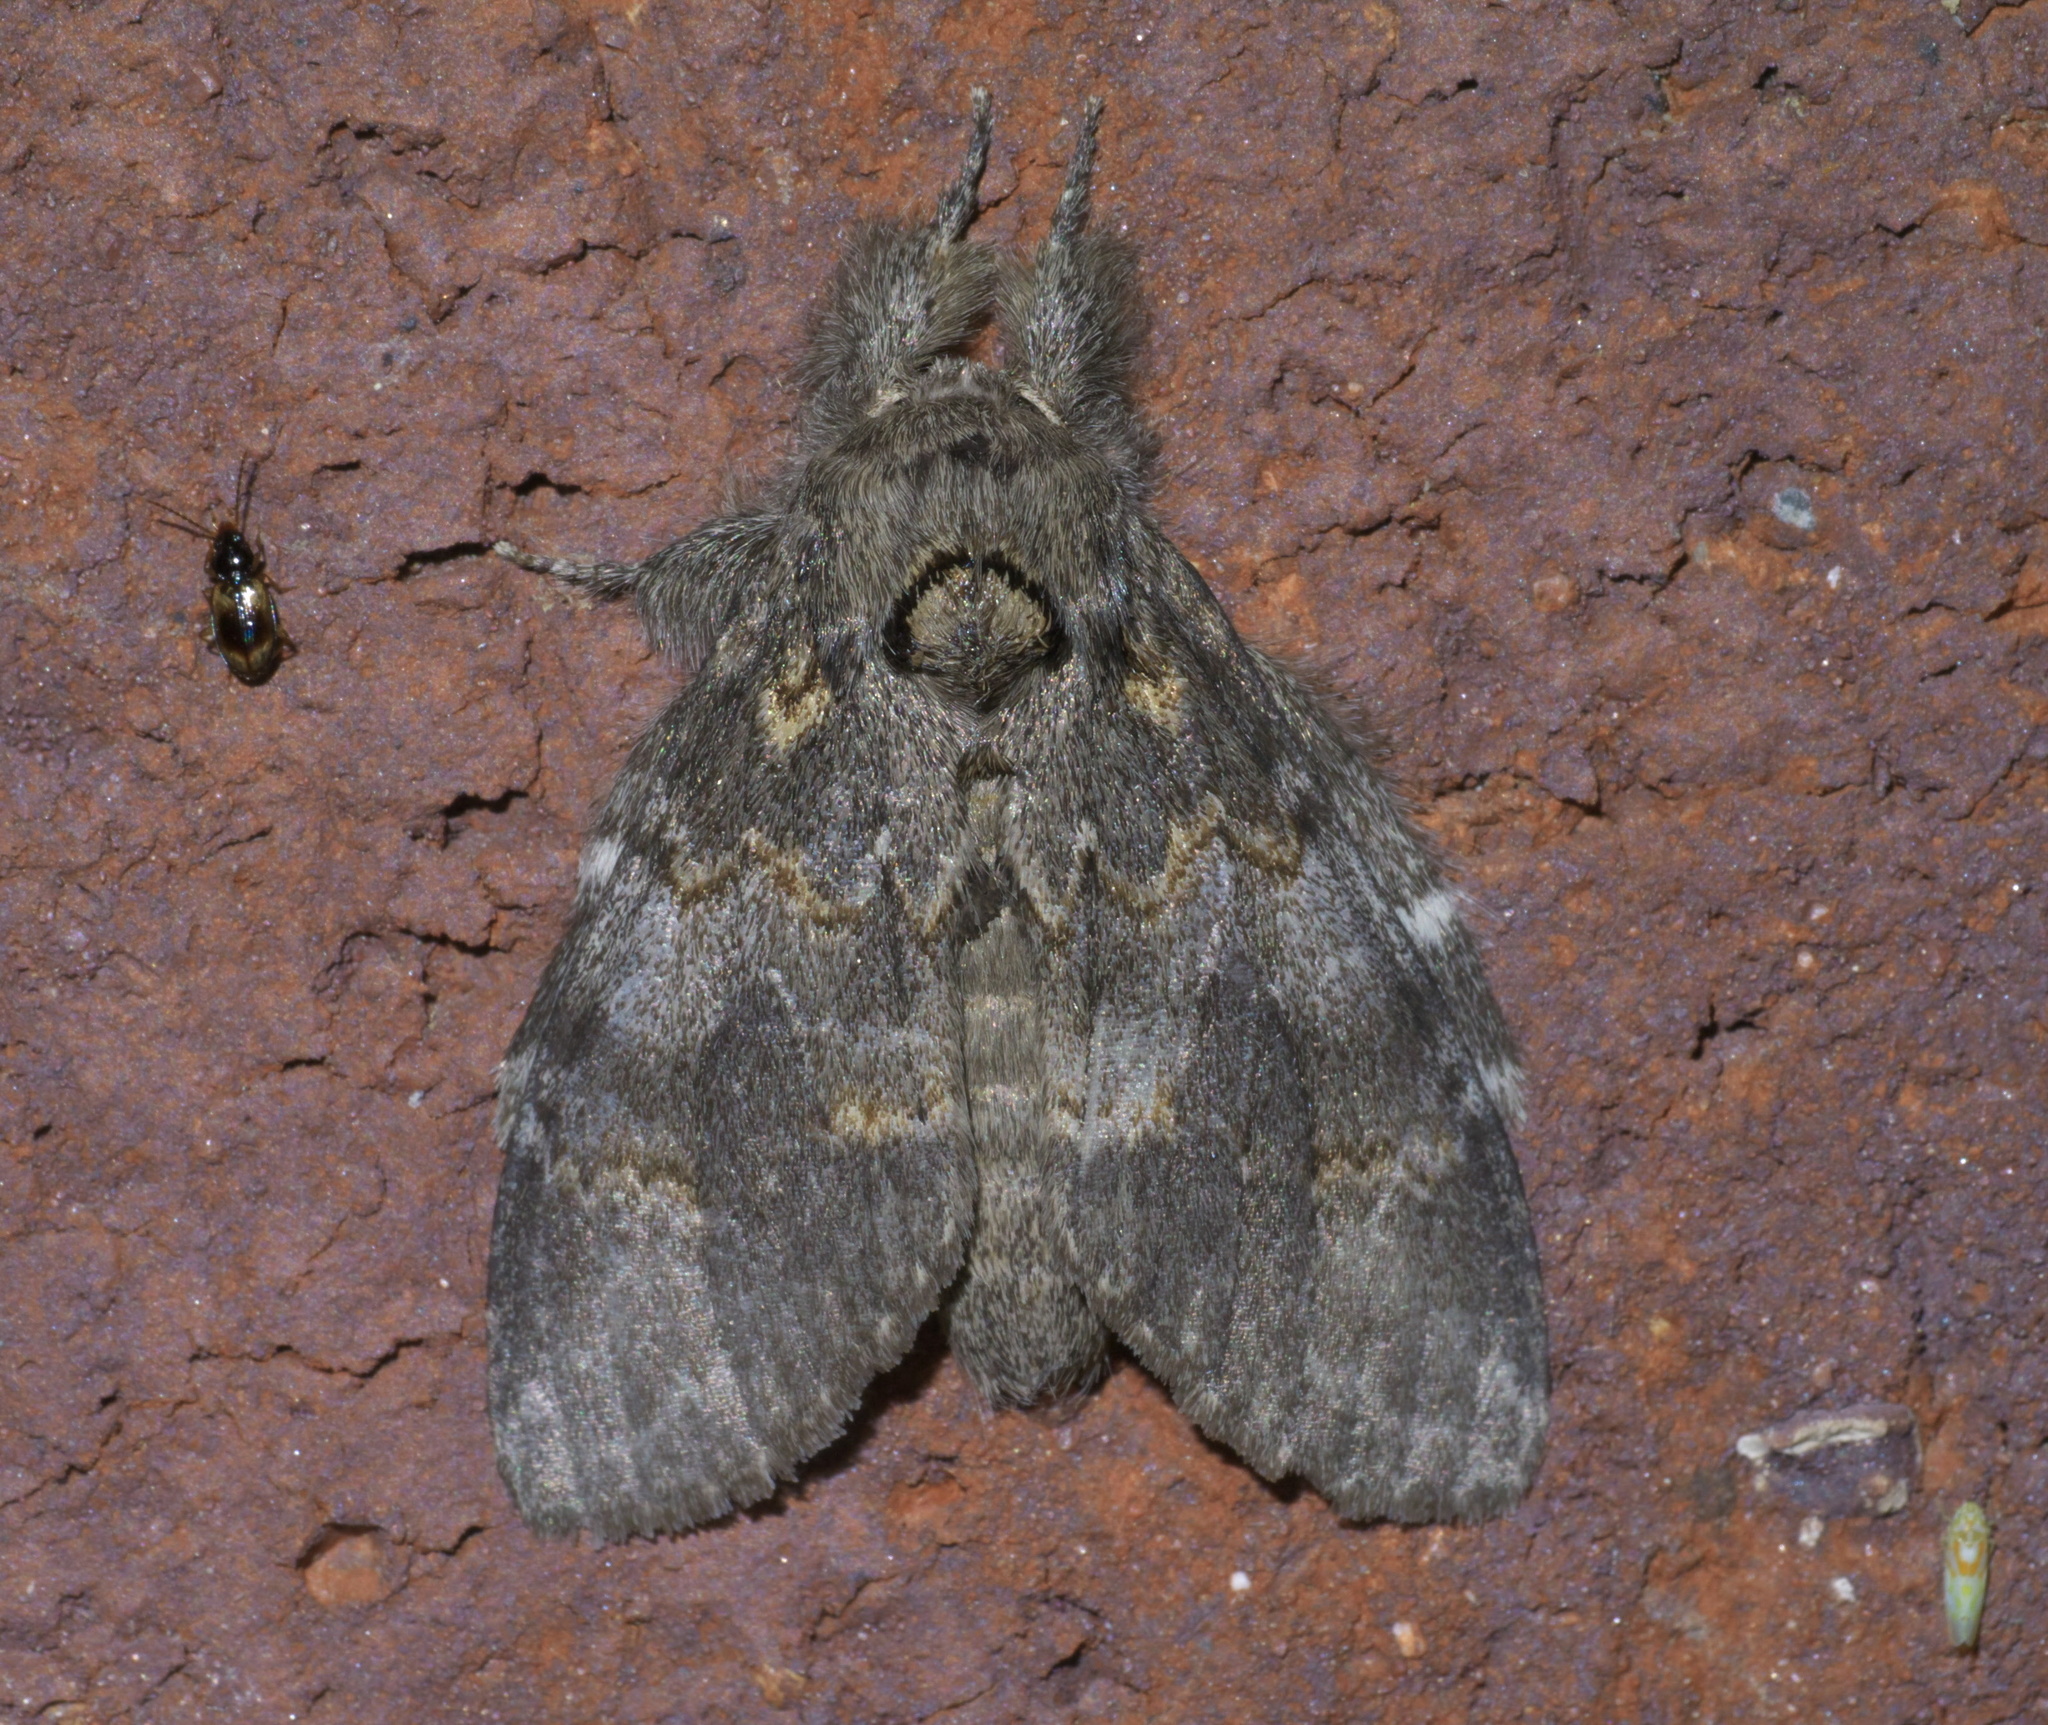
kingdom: Animalia
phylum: Arthropoda
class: Insecta
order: Lepidoptera
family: Notodontidae
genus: Peridea
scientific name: Peridea angulosa
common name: Angulose prominent
